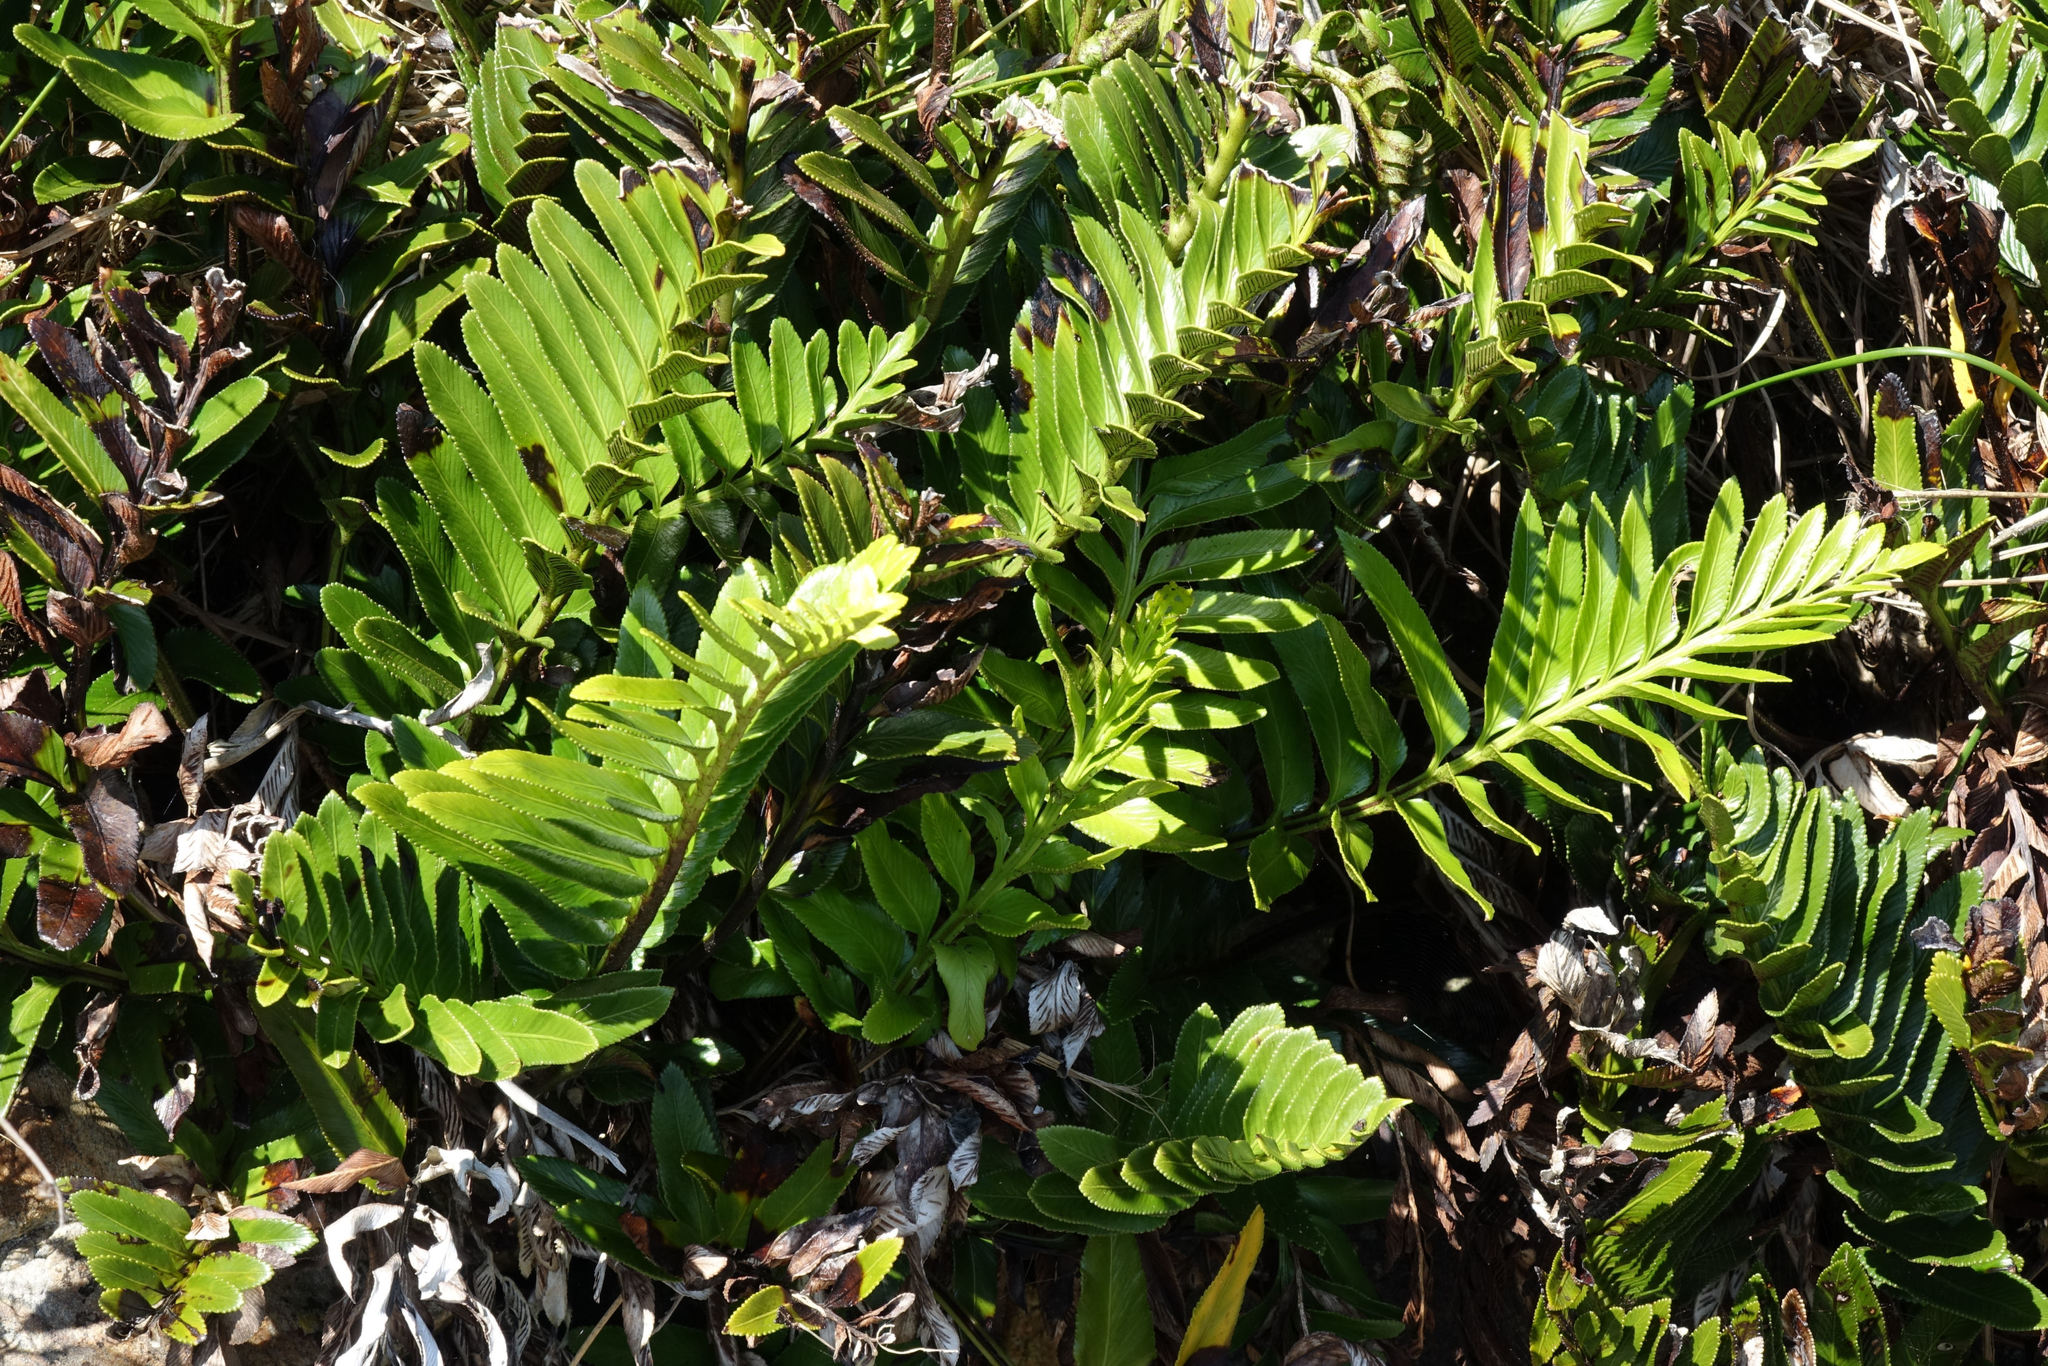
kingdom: Plantae
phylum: Tracheophyta
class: Polypodiopsida
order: Polypodiales
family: Aspleniaceae
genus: Asplenium
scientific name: Asplenium obtusatum
